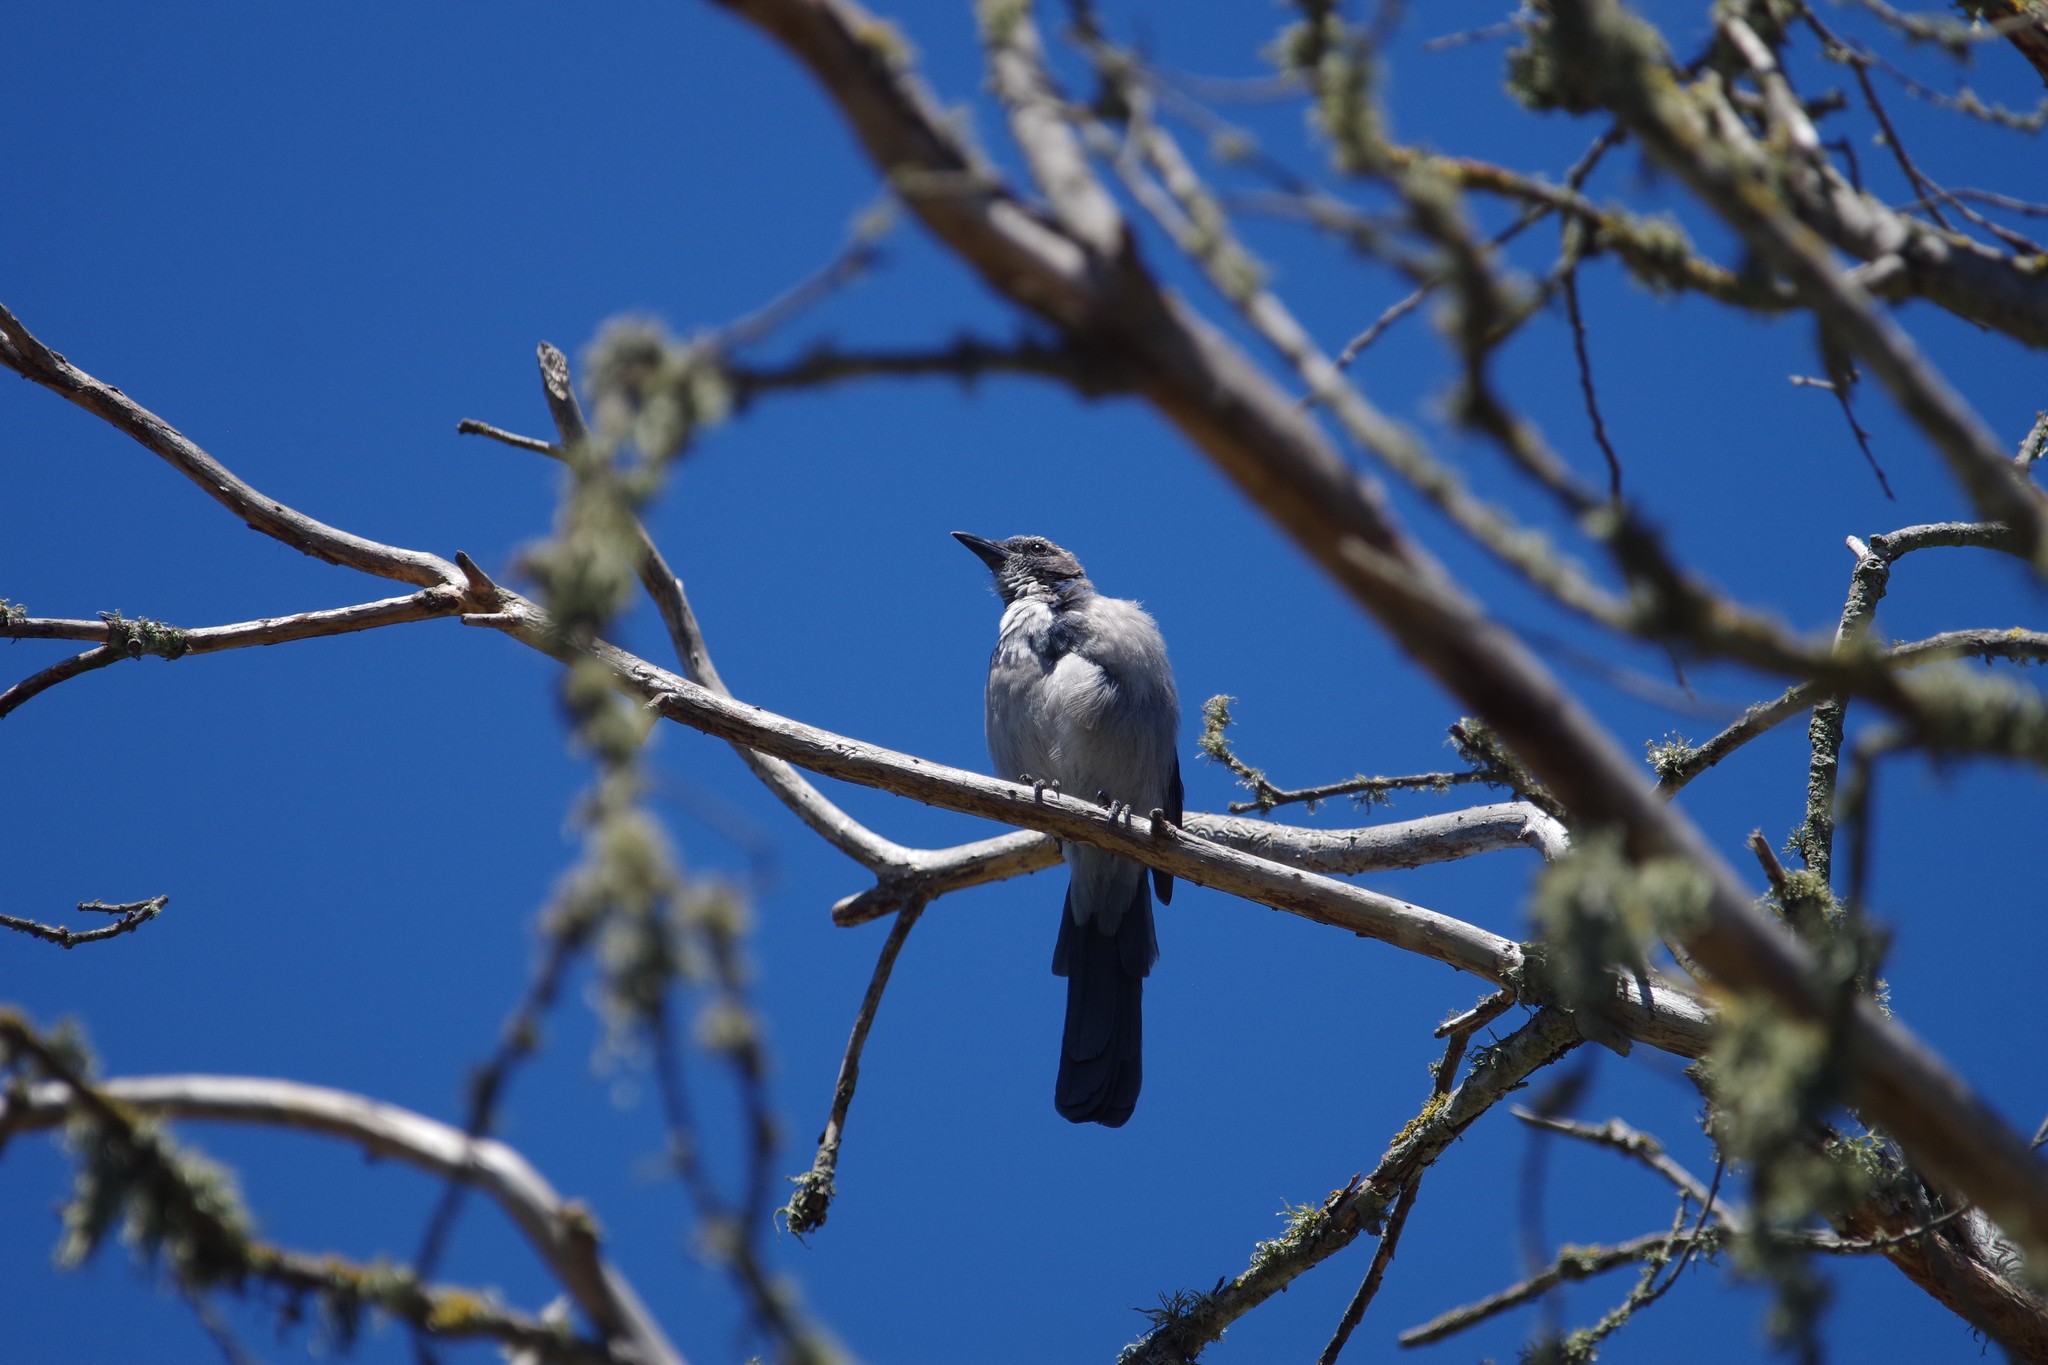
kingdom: Animalia
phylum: Chordata
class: Aves
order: Passeriformes
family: Corvidae
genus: Aphelocoma
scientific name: Aphelocoma californica
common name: California scrub-jay
